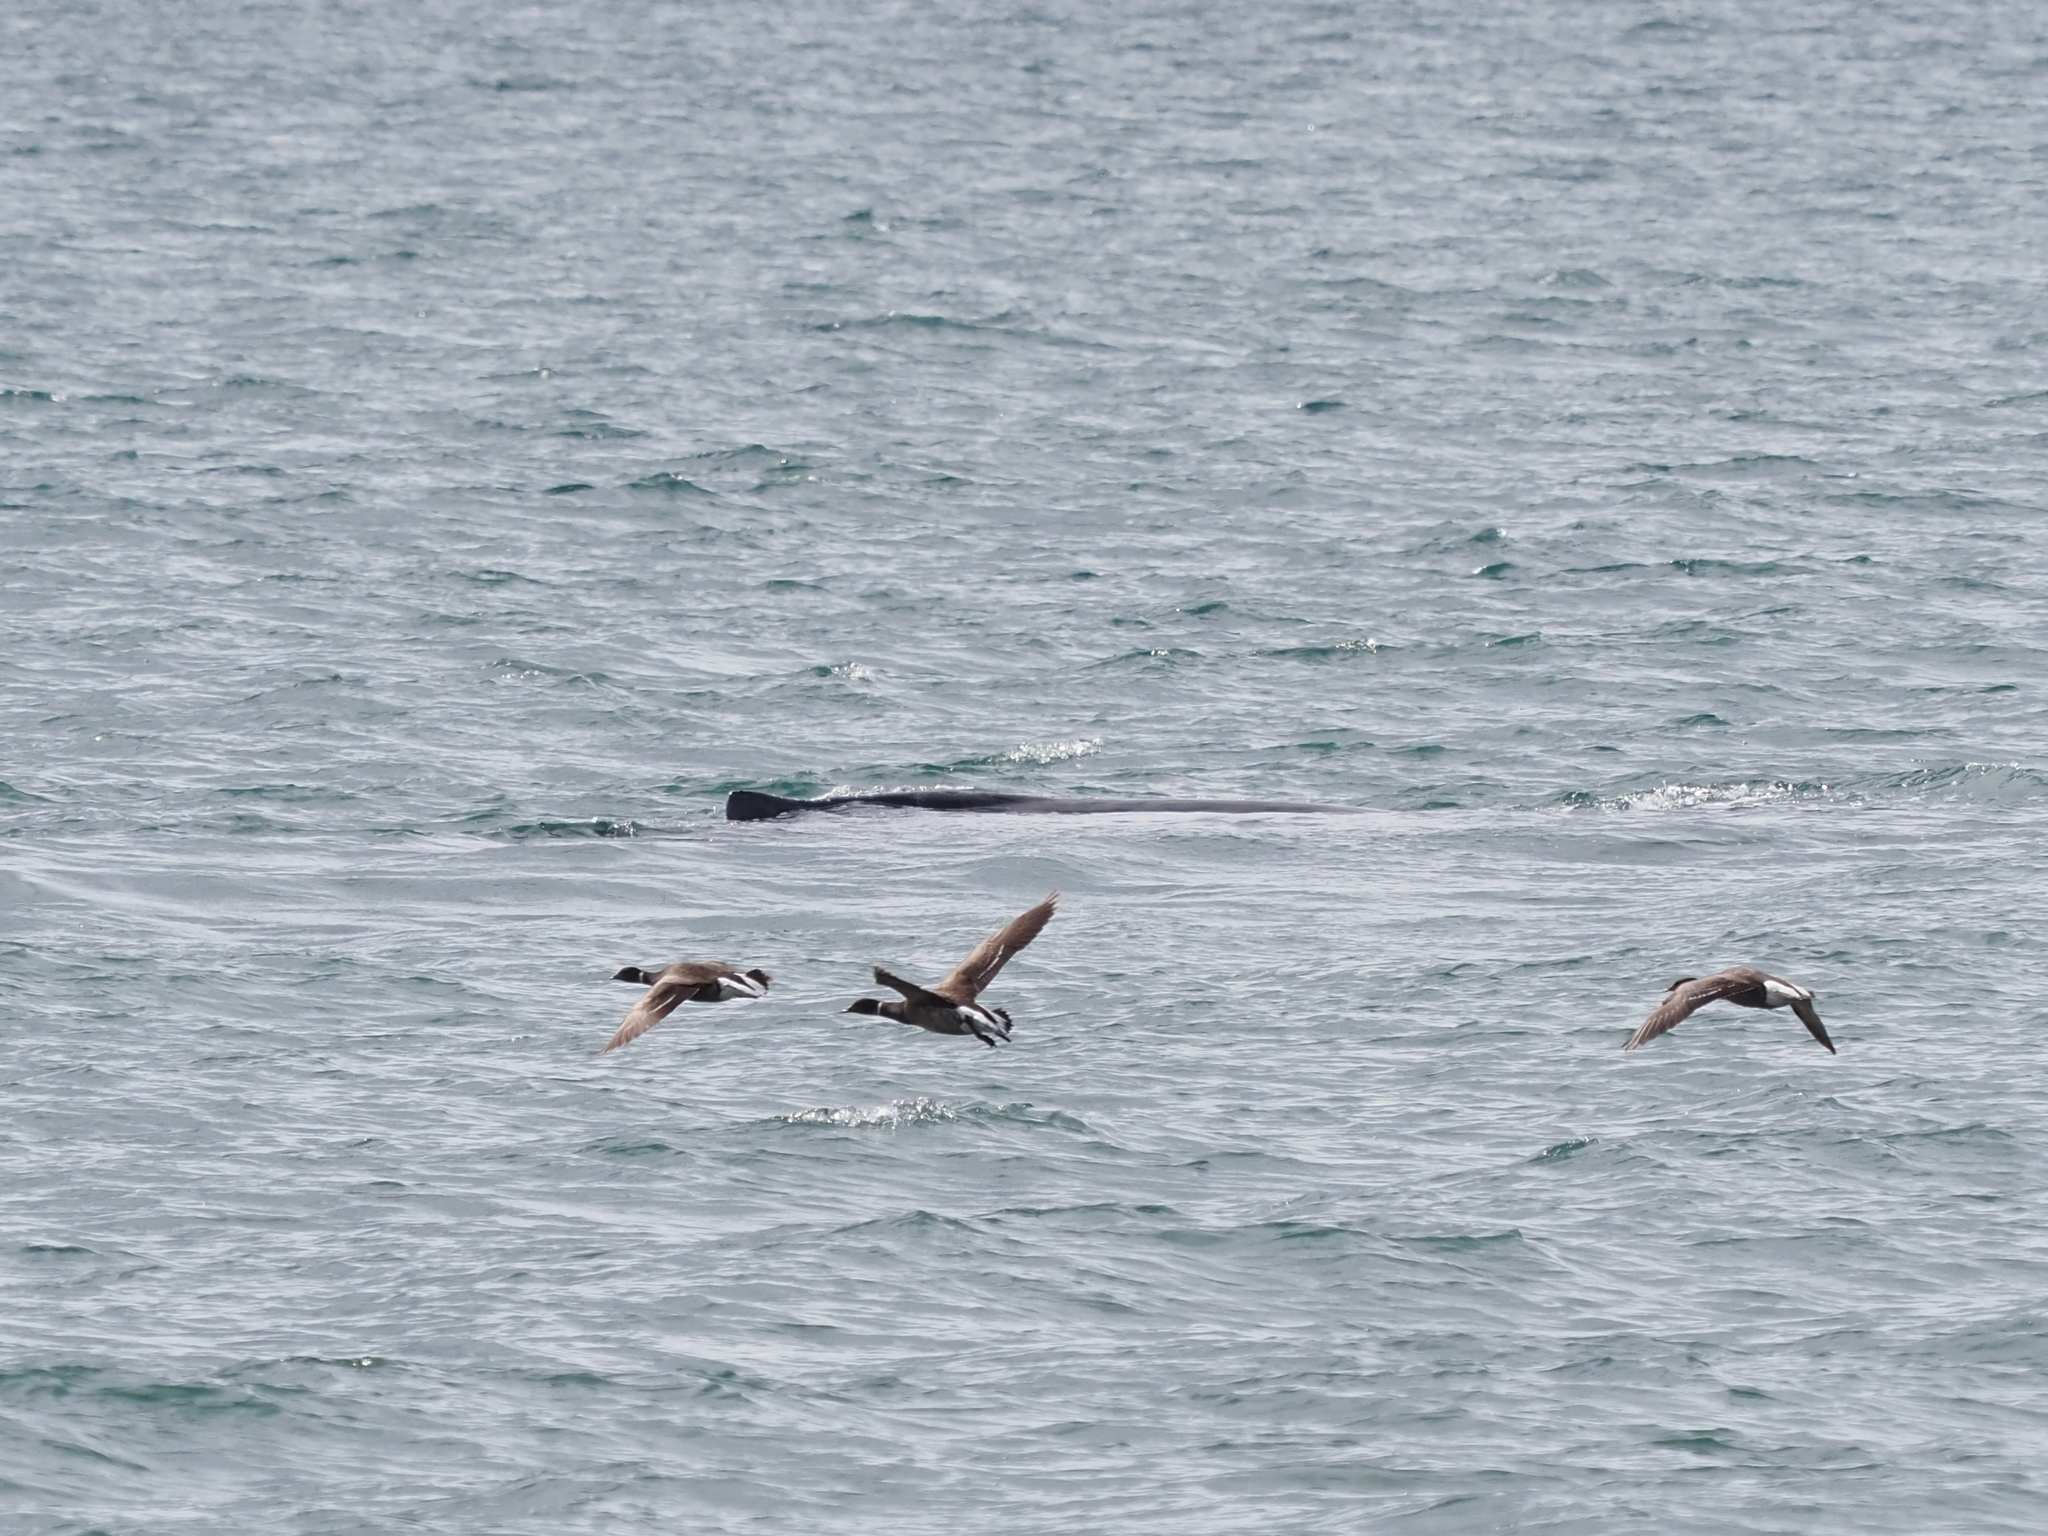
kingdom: Animalia
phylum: Chordata
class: Aves
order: Anseriformes
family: Anatidae
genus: Branta
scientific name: Branta bernicla
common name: Brant goose
